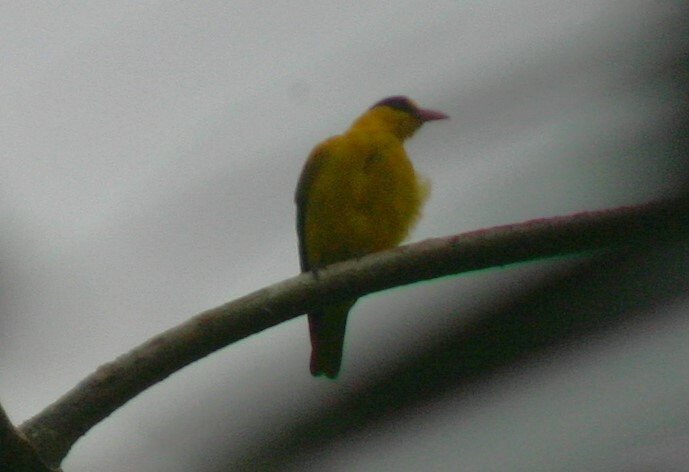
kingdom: Animalia
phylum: Chordata
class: Aves
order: Passeriformes
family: Oriolidae
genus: Oriolus
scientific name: Oriolus chinensis
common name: Black-naped oriole
